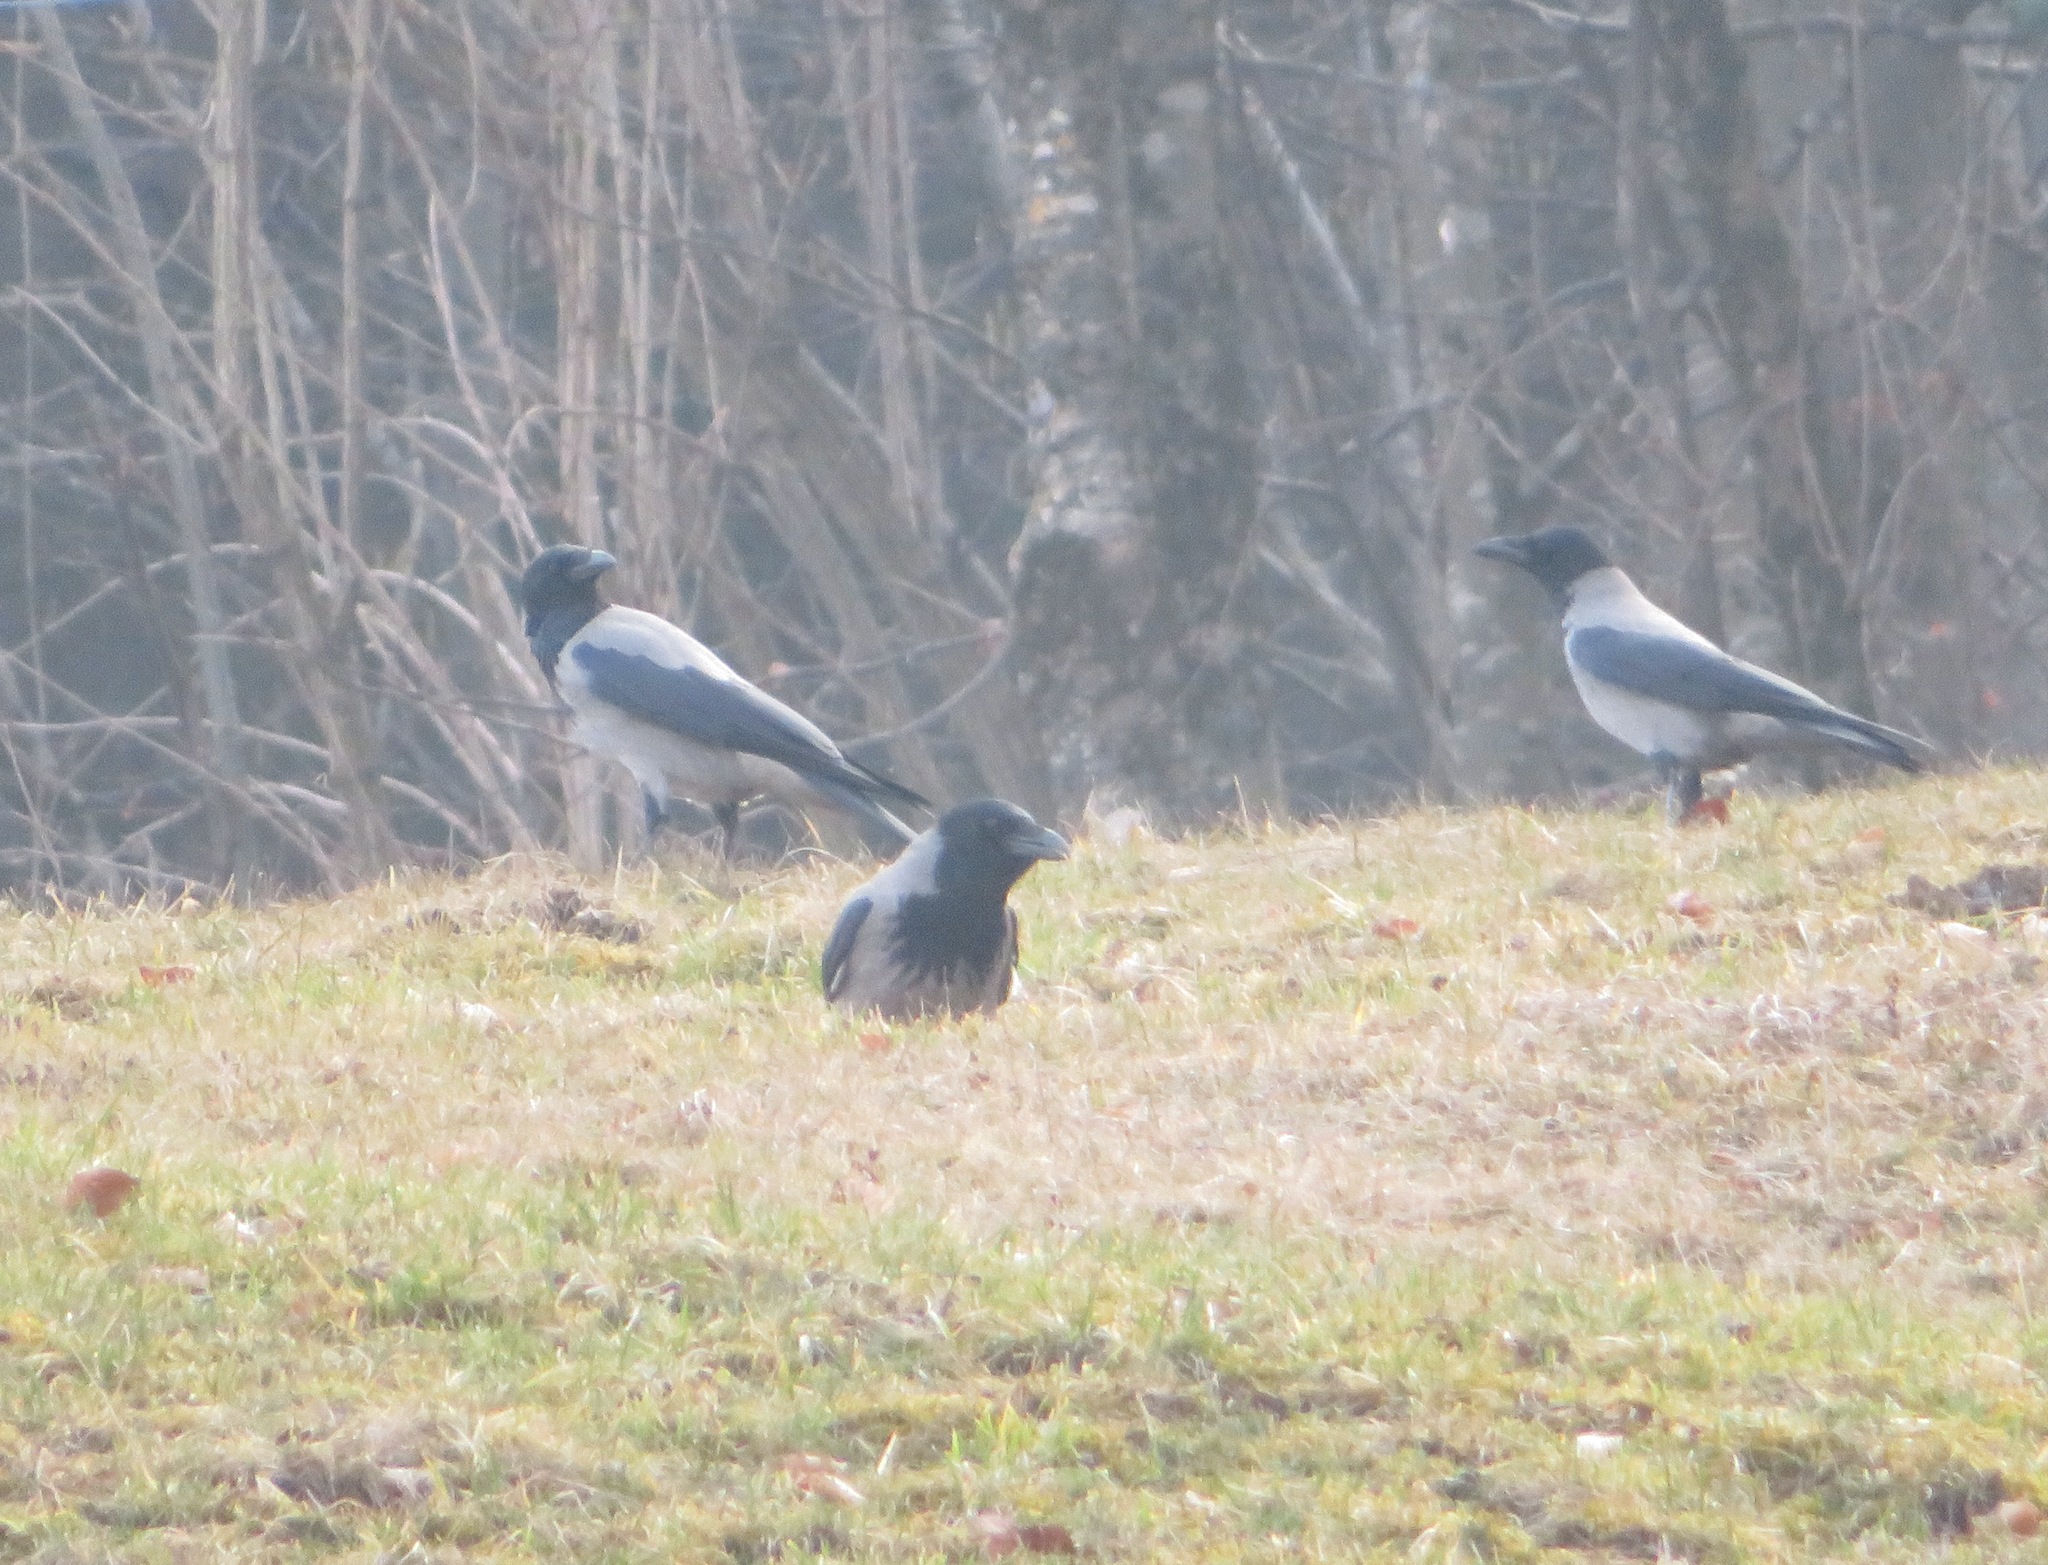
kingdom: Animalia
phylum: Chordata
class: Aves
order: Passeriformes
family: Corvidae
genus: Corvus
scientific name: Corvus cornix
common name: Hooded crow
